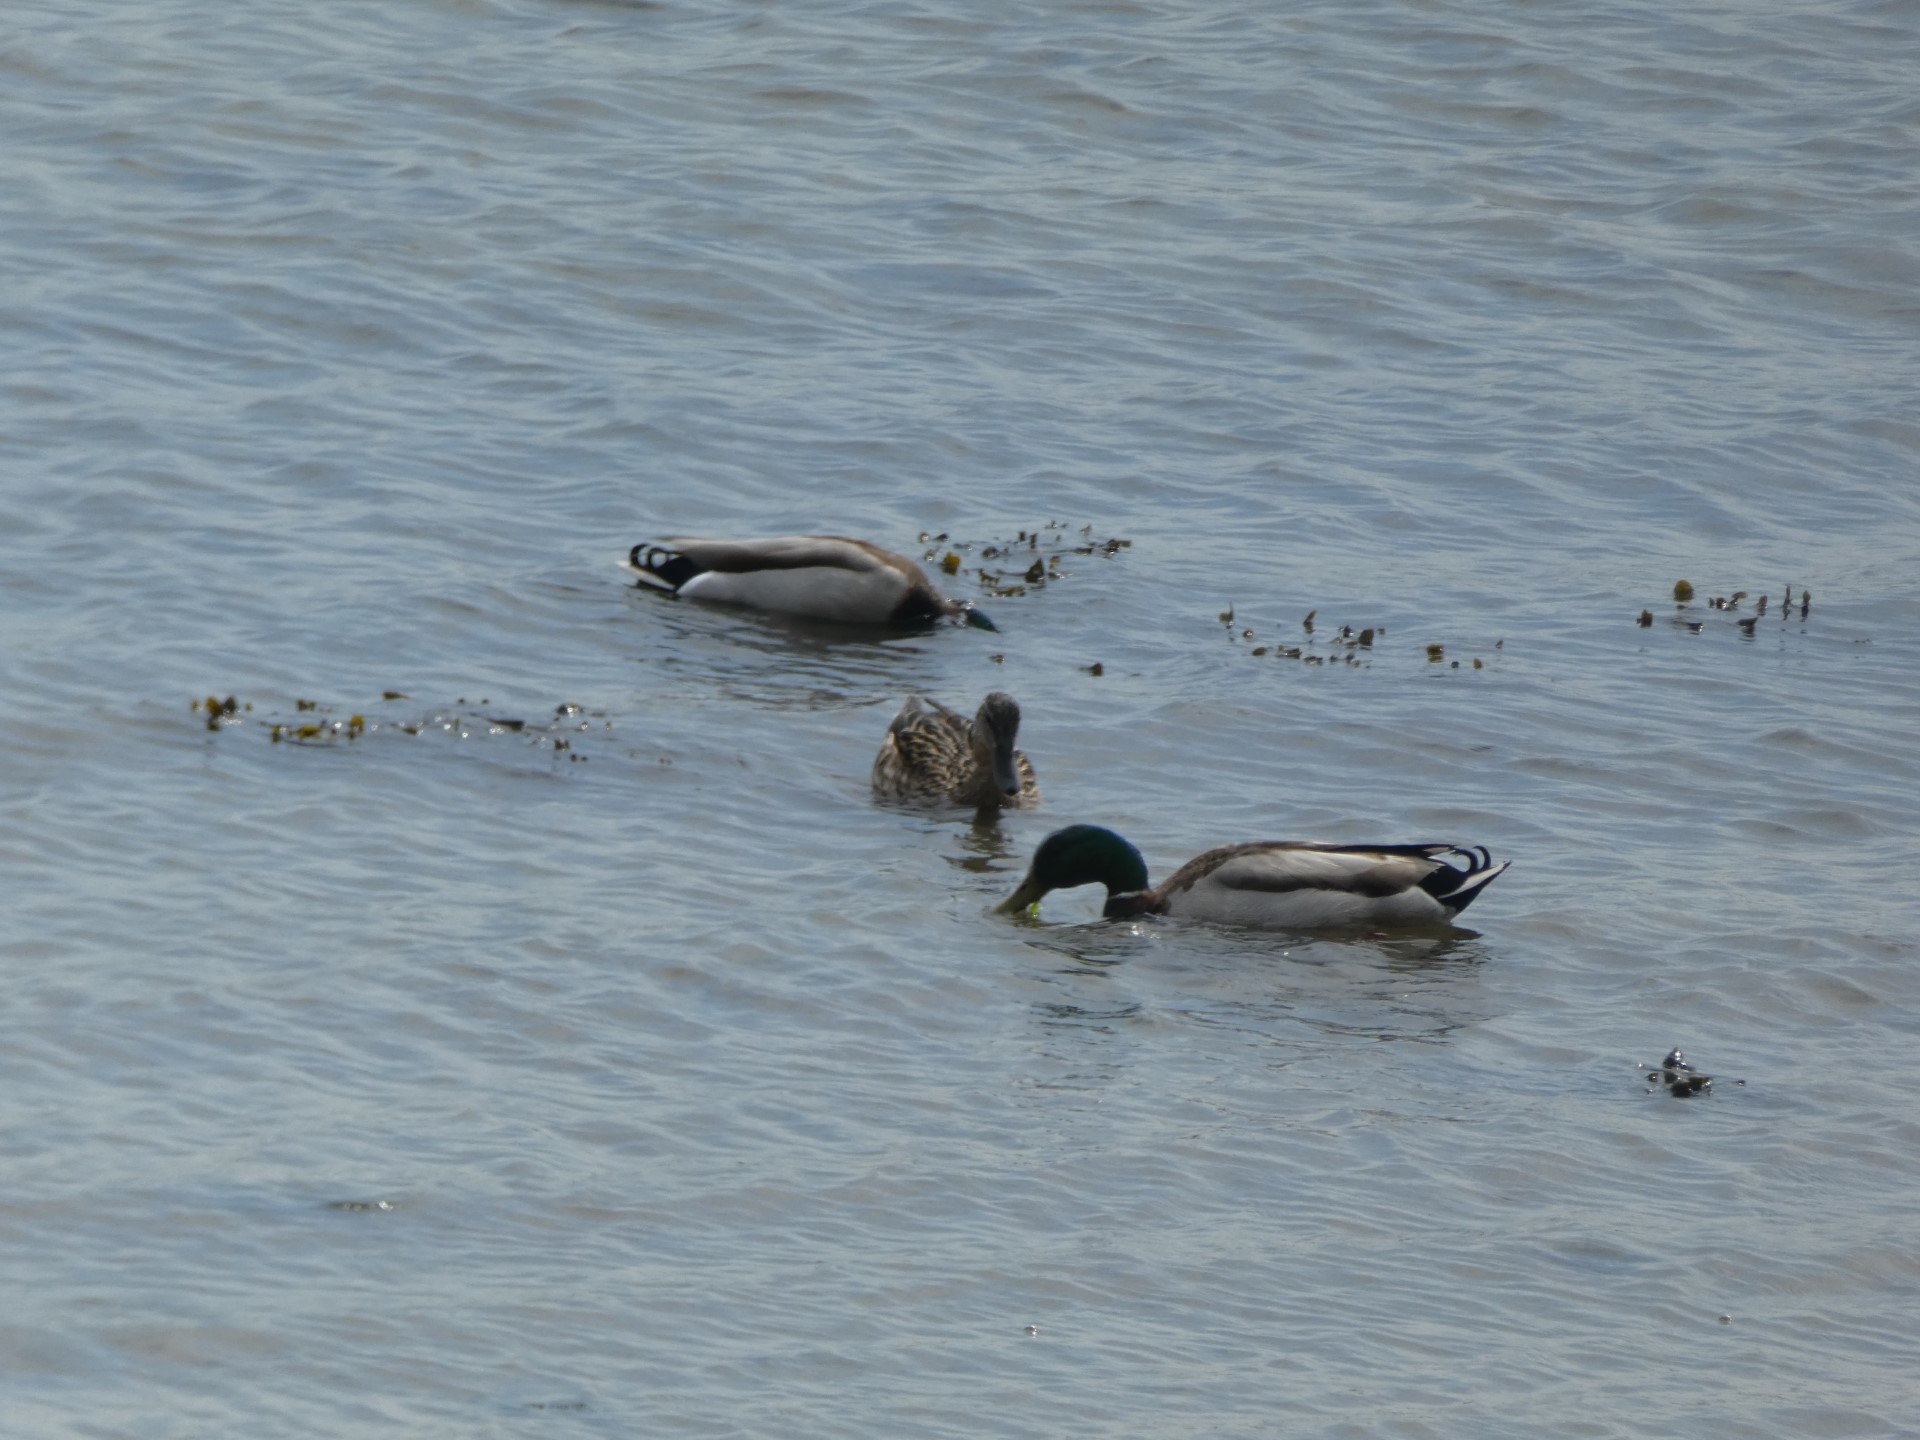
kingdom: Animalia
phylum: Chordata
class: Aves
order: Anseriformes
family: Anatidae
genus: Anas
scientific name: Anas platyrhynchos
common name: Mallard
